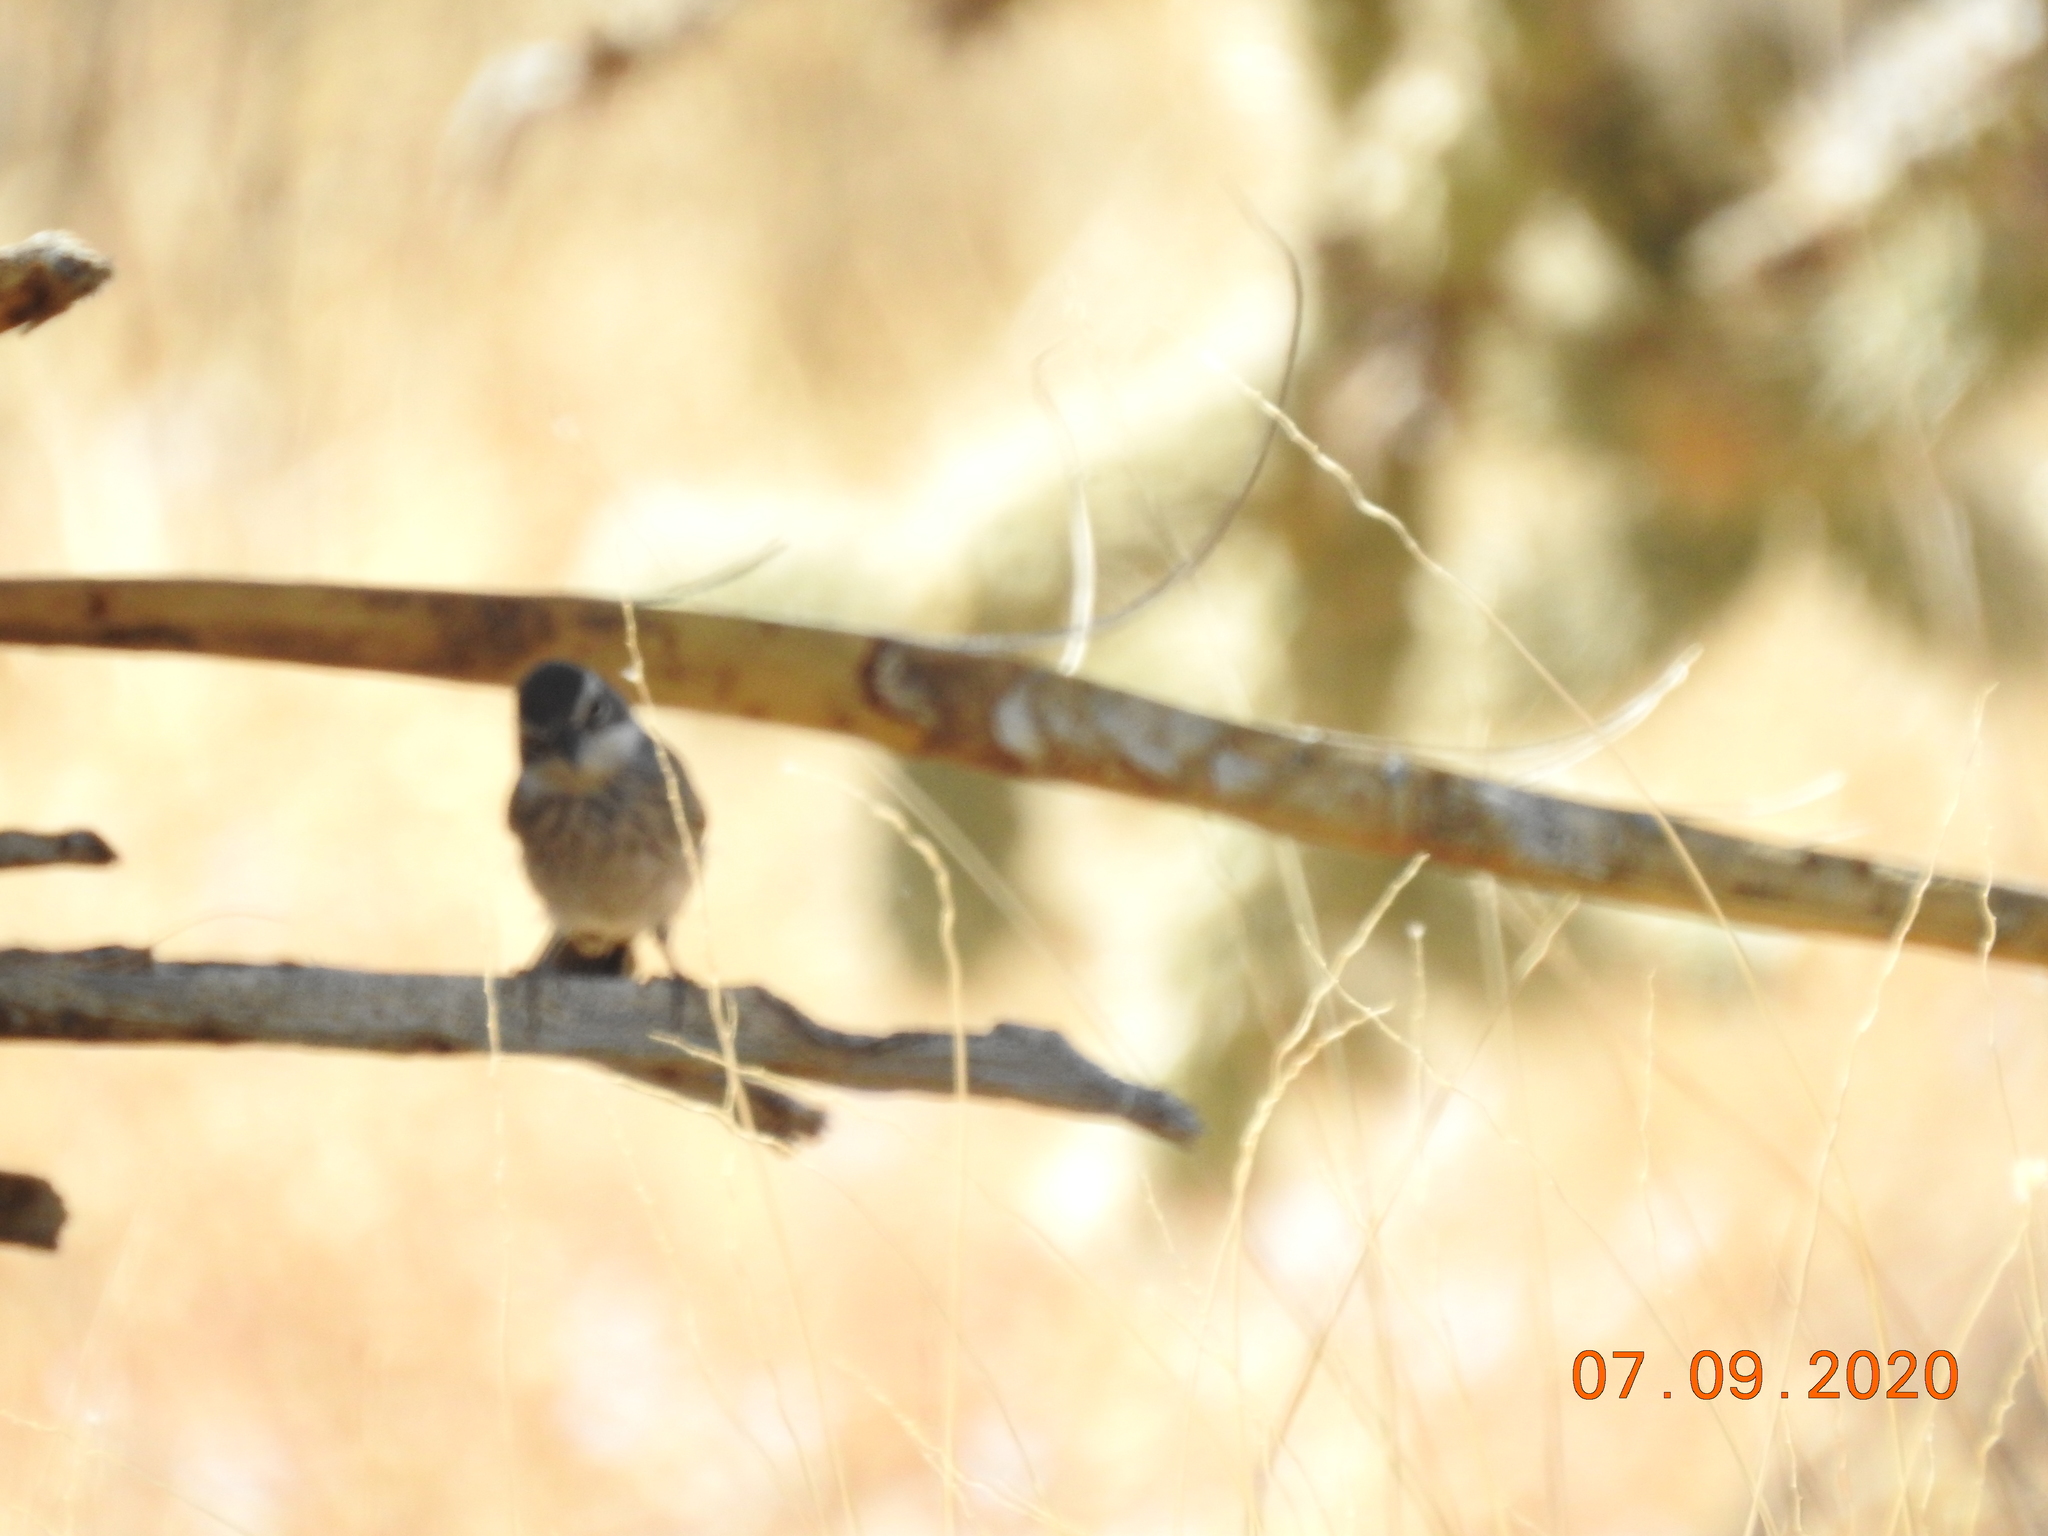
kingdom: Animalia
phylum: Chordata
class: Aves
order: Passeriformes
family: Passerellidae
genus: Amphispiza
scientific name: Amphispiza bilineata
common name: Black-throated sparrow
